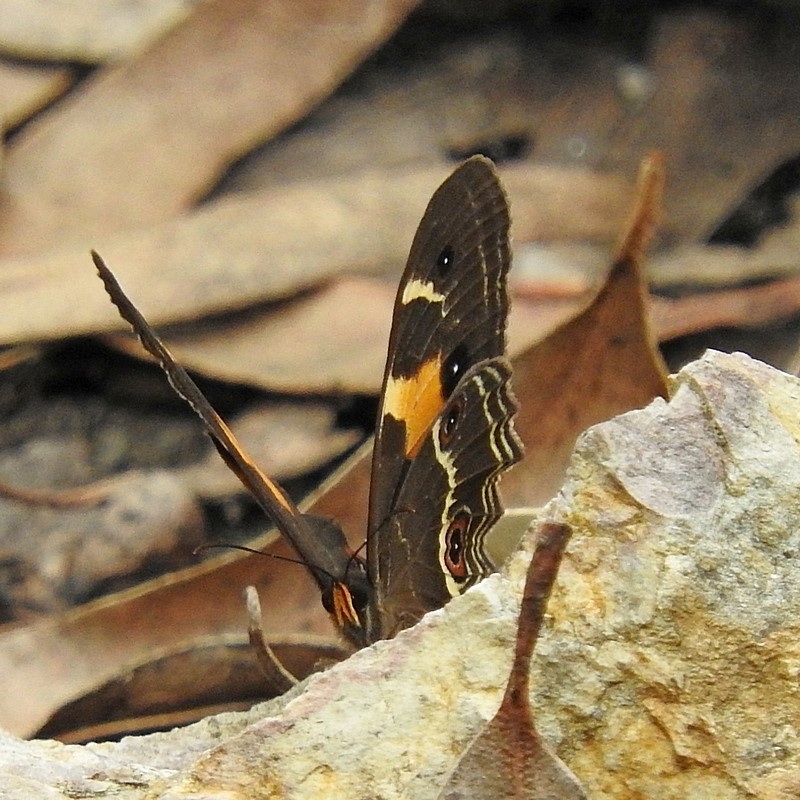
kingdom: Animalia
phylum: Arthropoda
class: Insecta
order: Lepidoptera
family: Nymphalidae
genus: Tisiphone
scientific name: Tisiphone abeona
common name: Swordgrass brown
